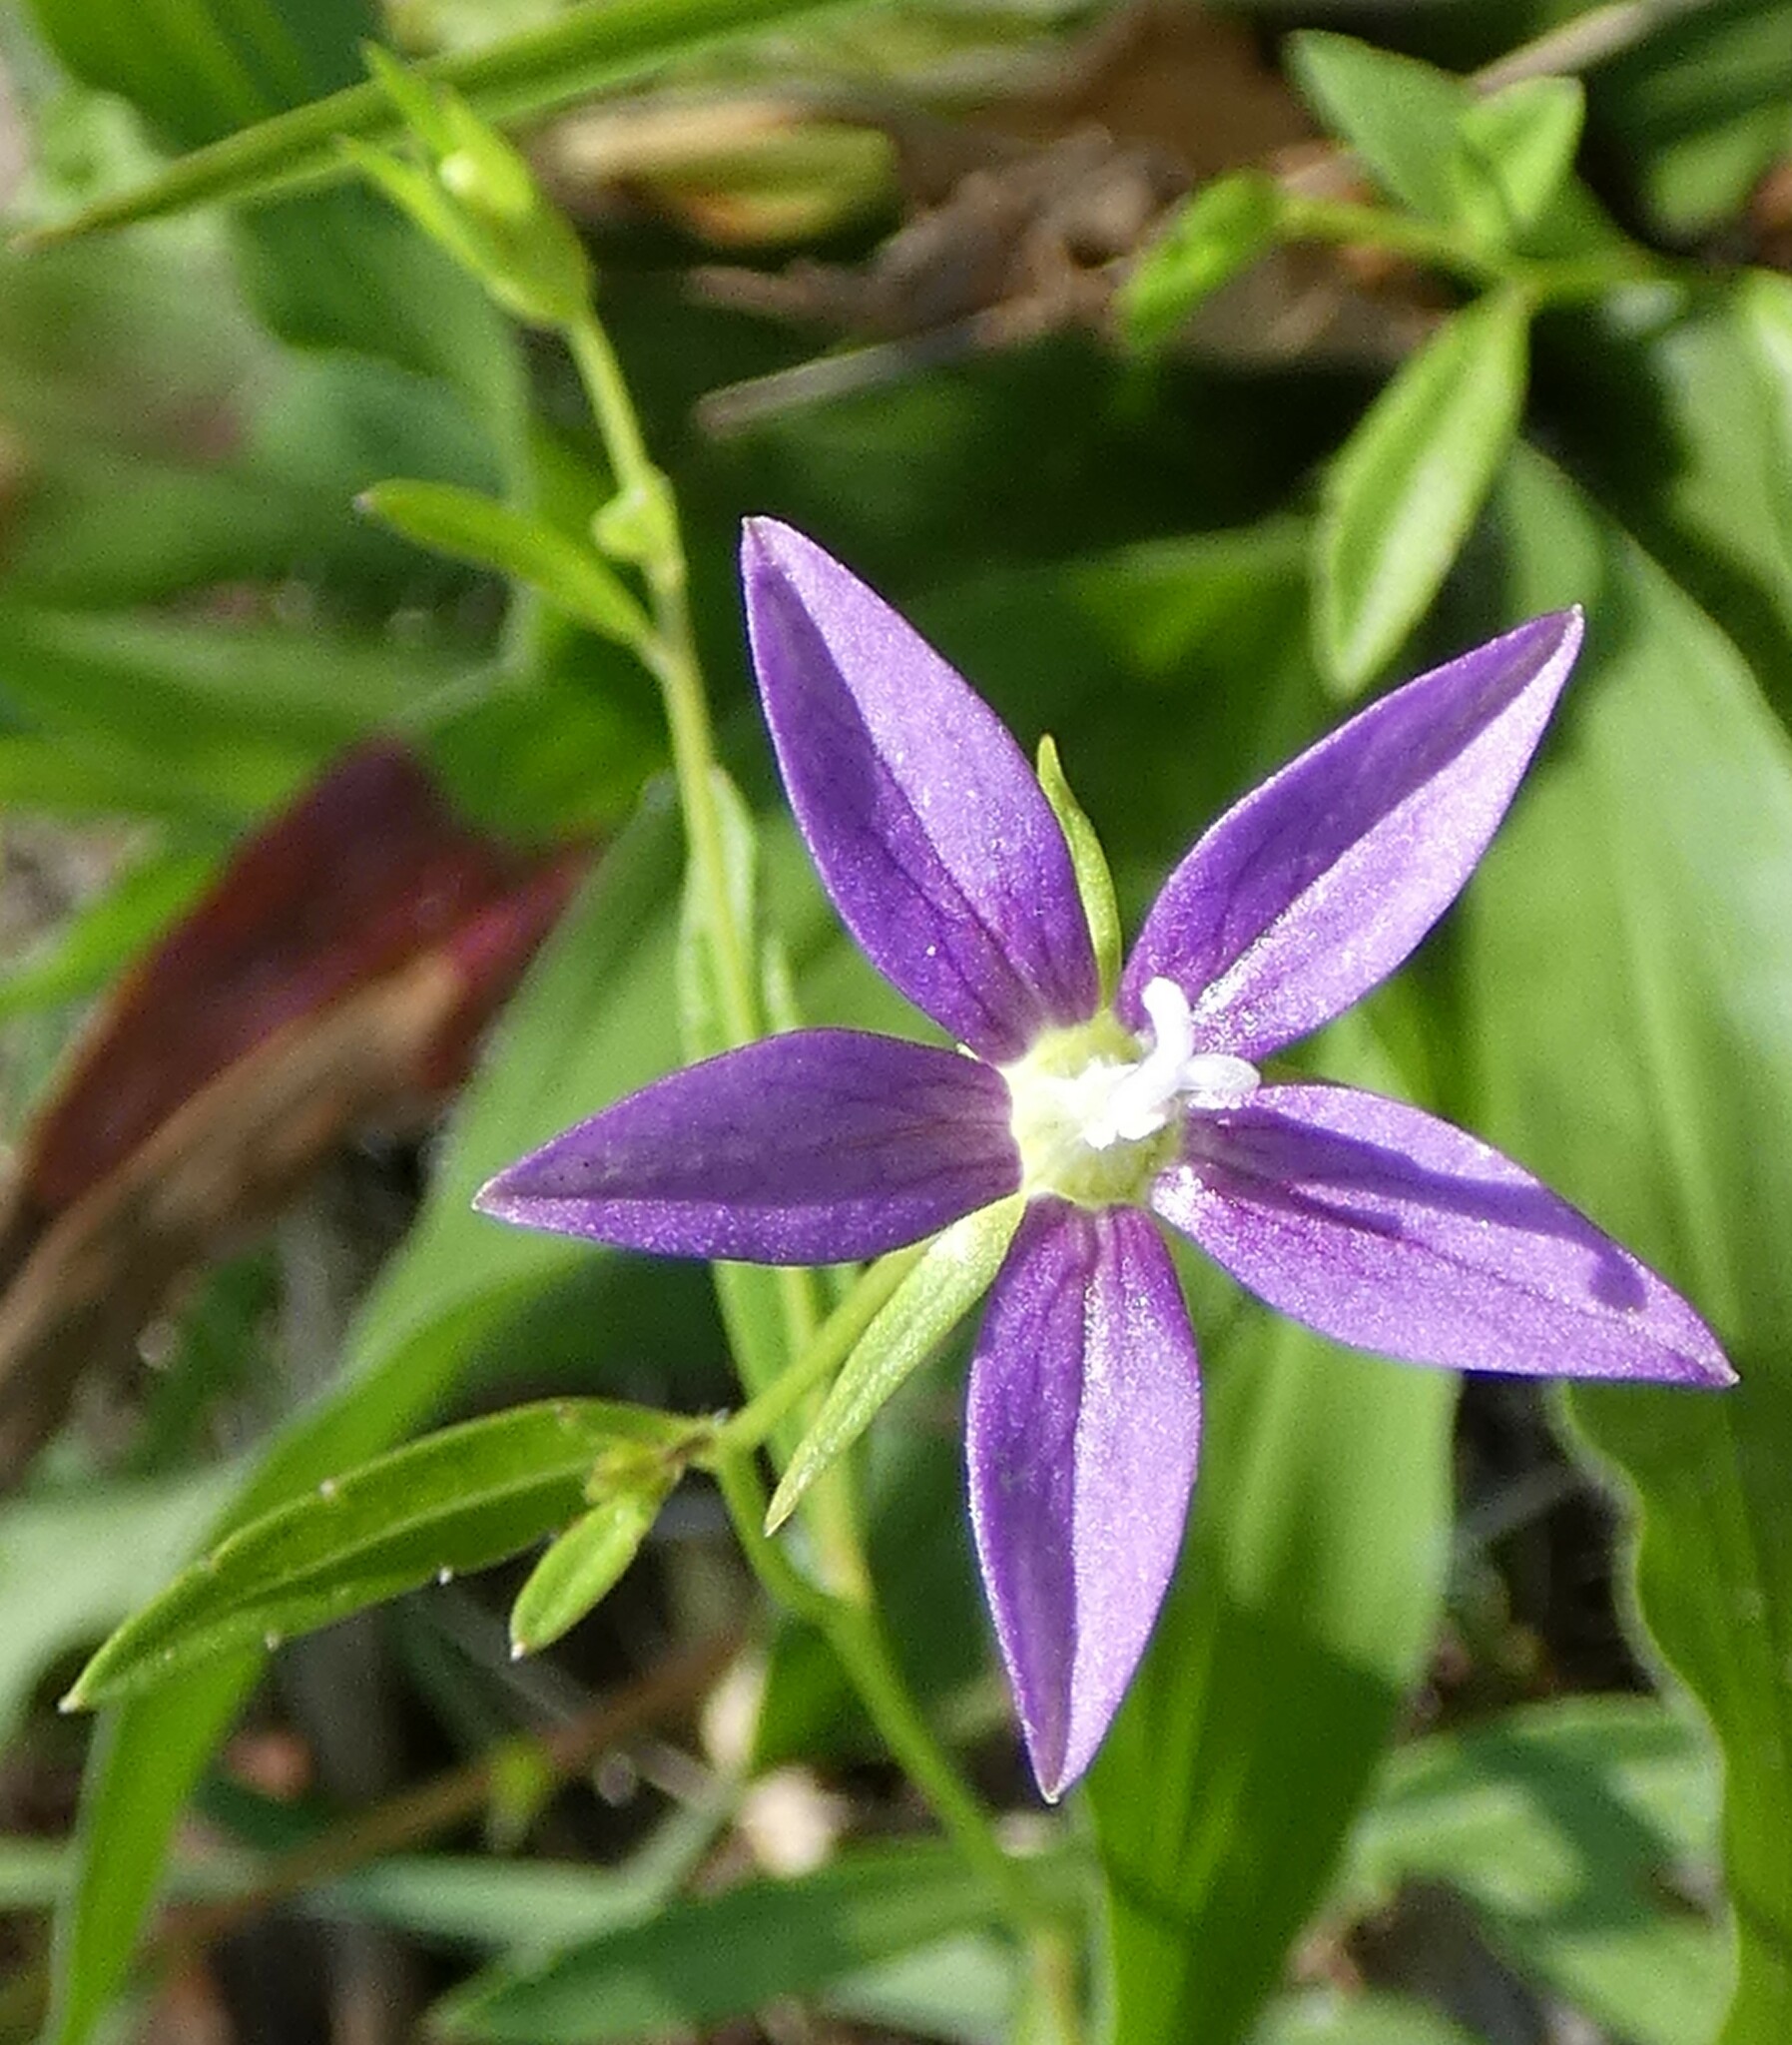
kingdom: Plantae
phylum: Tracheophyta
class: Magnoliopsida
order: Asterales
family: Campanulaceae
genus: Rotanthella
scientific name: Rotanthella floridana
